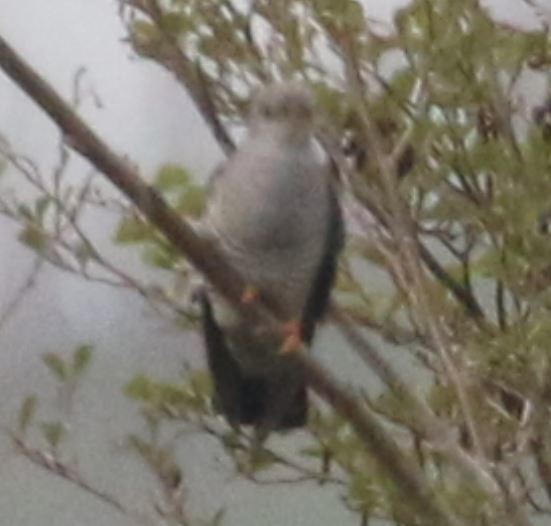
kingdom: Animalia
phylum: Chordata
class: Aves
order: Cuculiformes
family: Cuculidae
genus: Cuculus
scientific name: Cuculus canorus
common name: Common cuckoo
